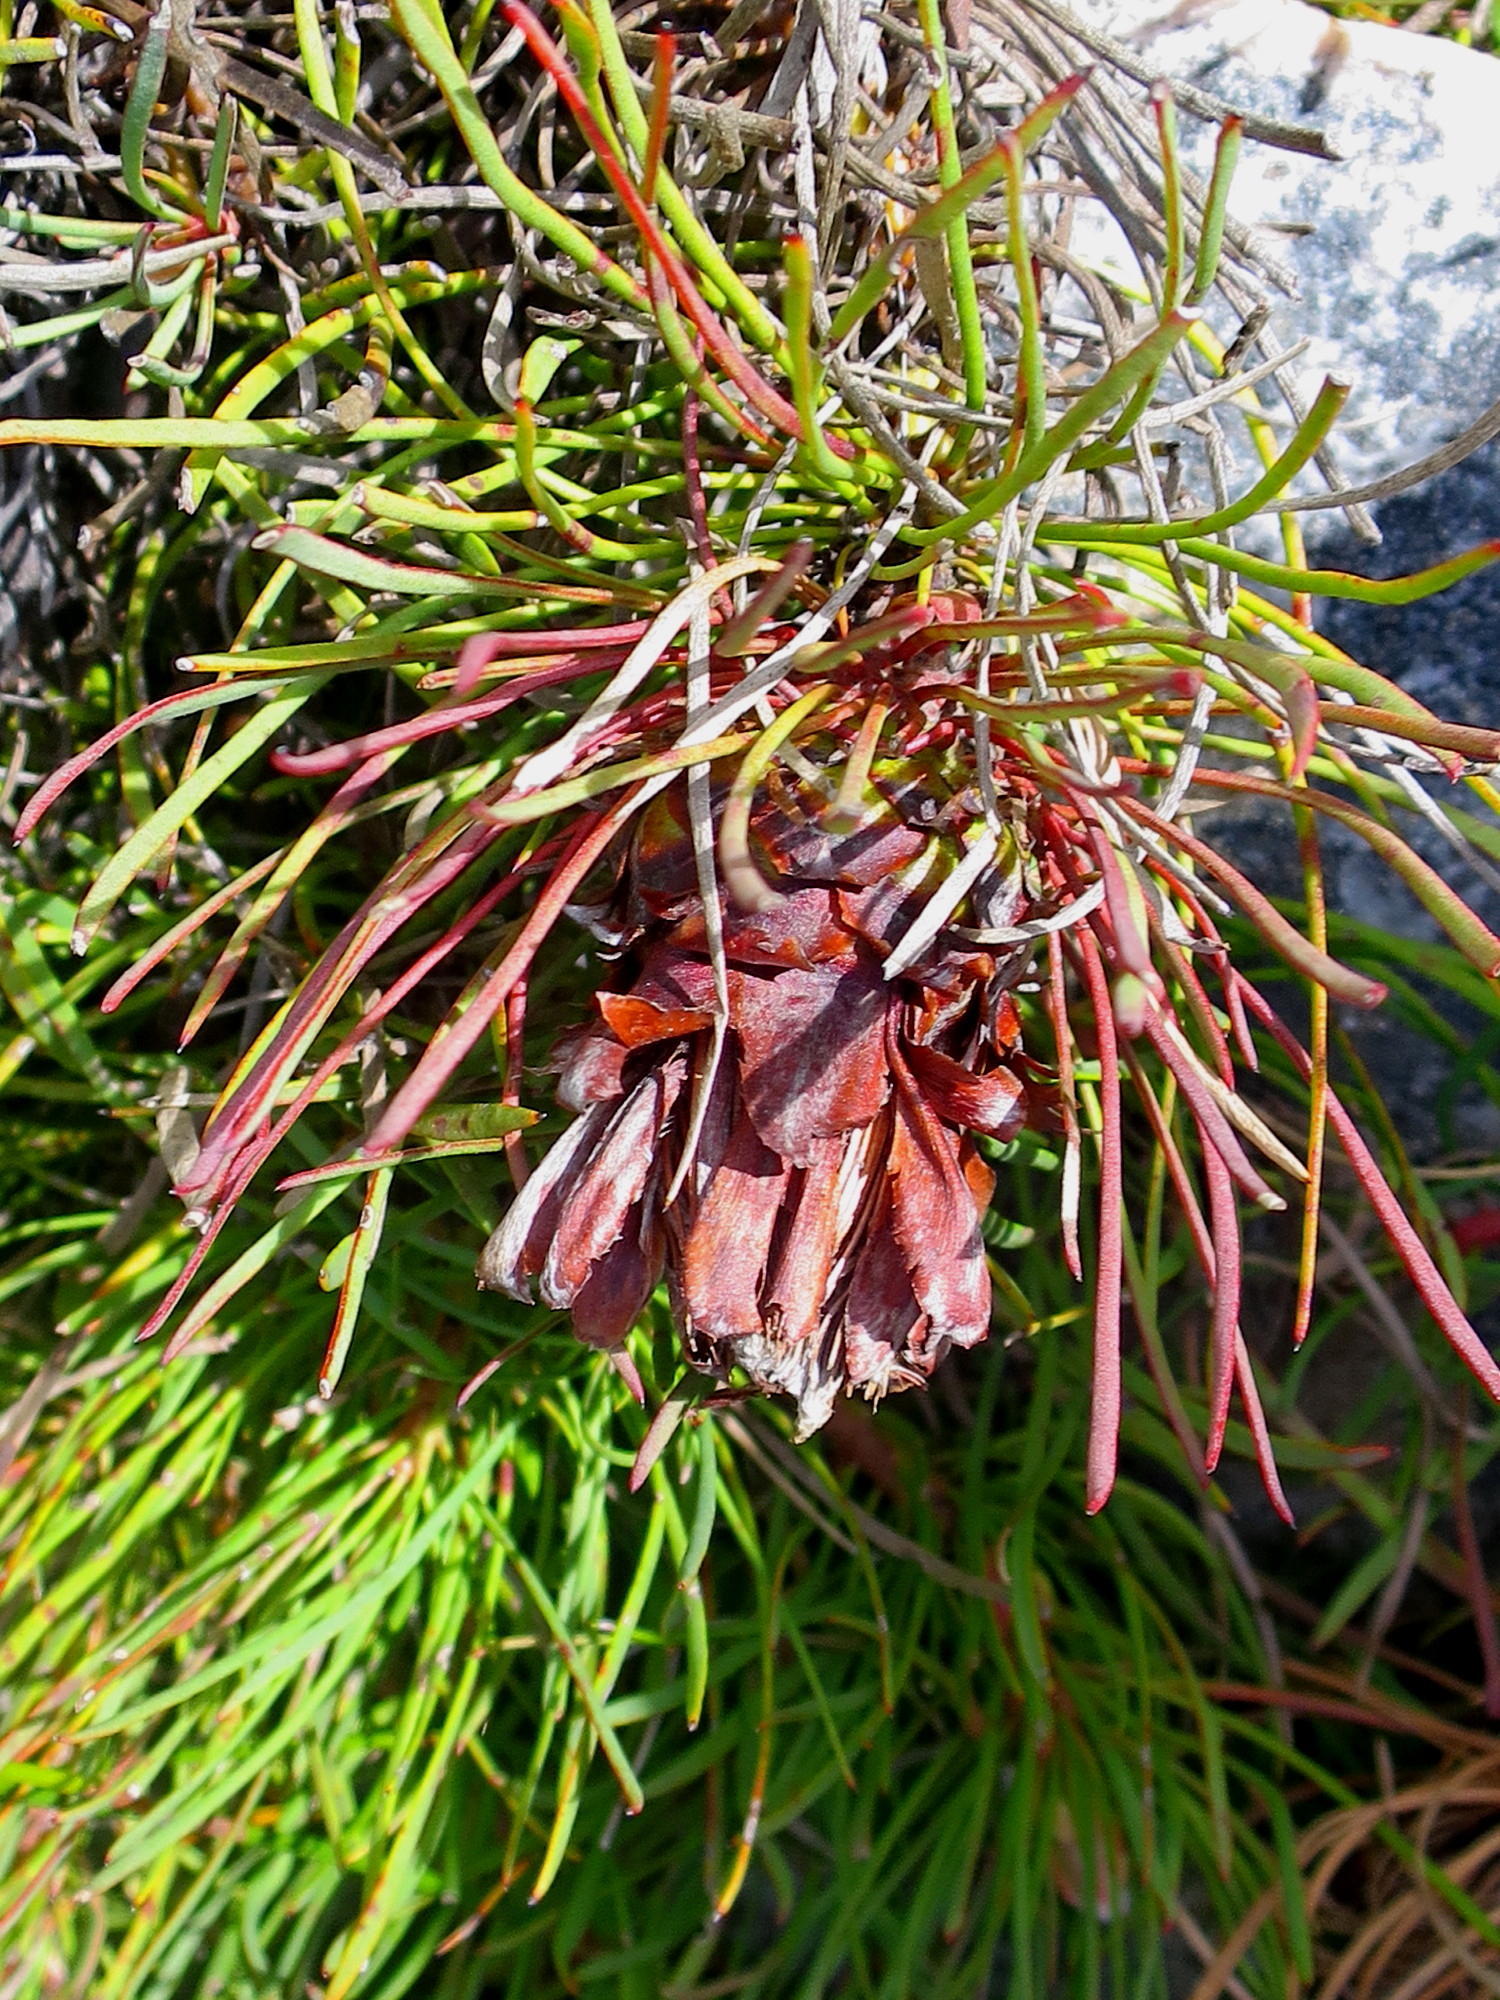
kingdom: Plantae
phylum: Tracheophyta
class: Magnoliopsida
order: Proteales
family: Proteaceae
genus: Protea
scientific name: Protea montana
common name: Swartberg sugarbush
